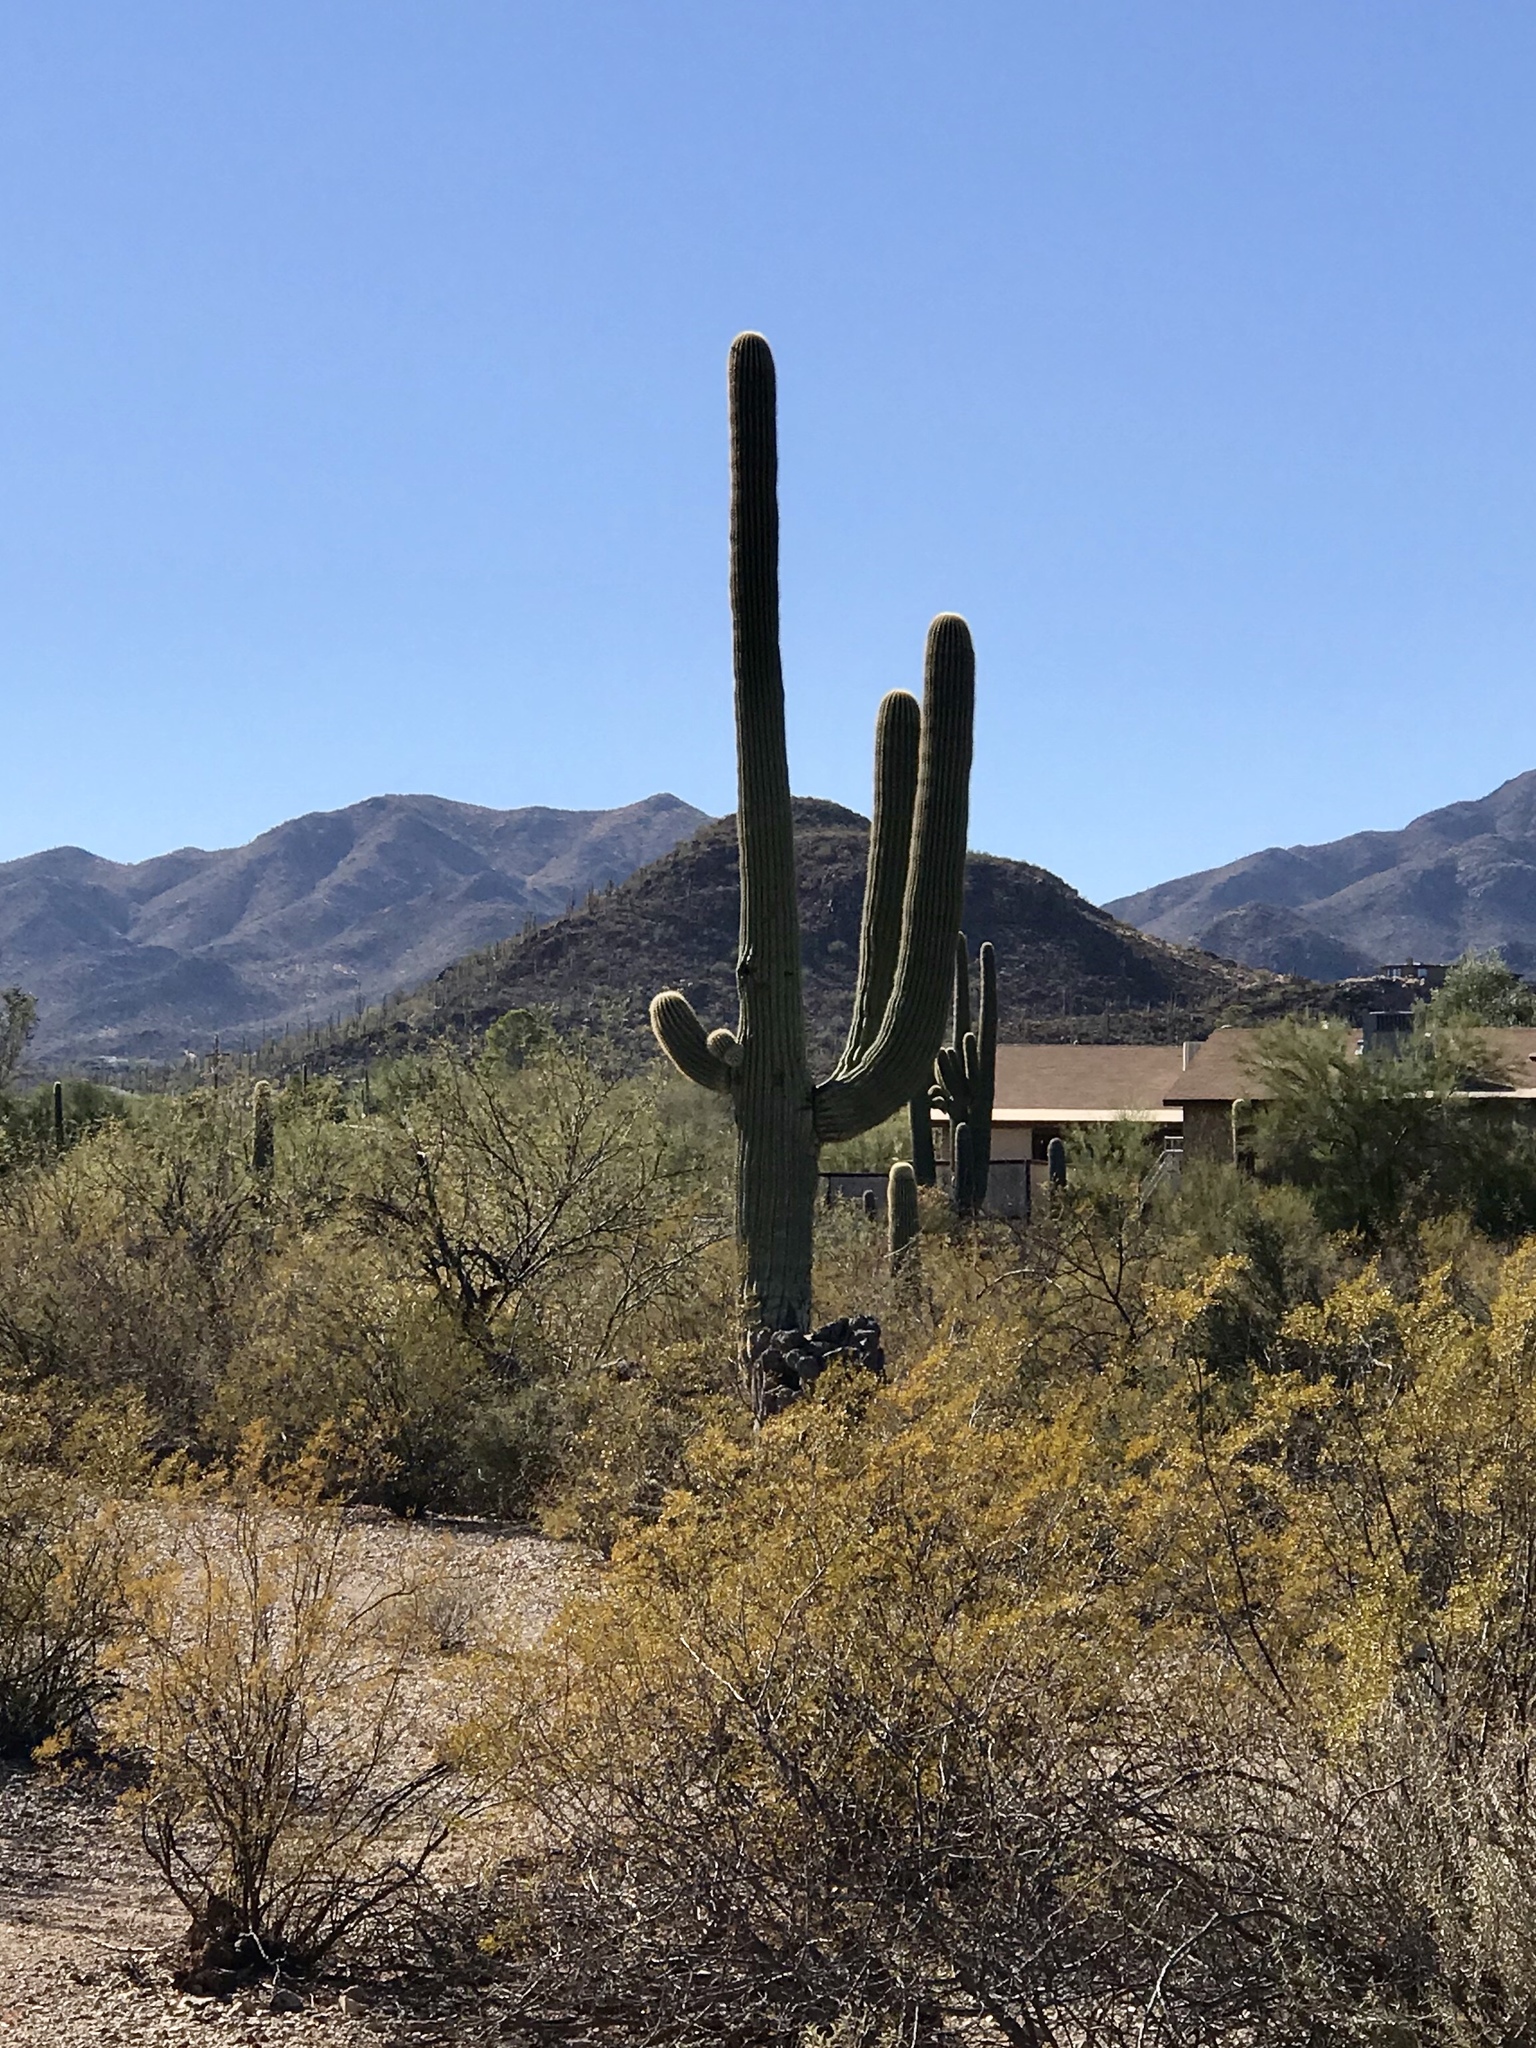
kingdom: Plantae
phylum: Tracheophyta
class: Magnoliopsida
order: Zygophyllales
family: Zygophyllaceae
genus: Larrea
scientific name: Larrea tridentata
